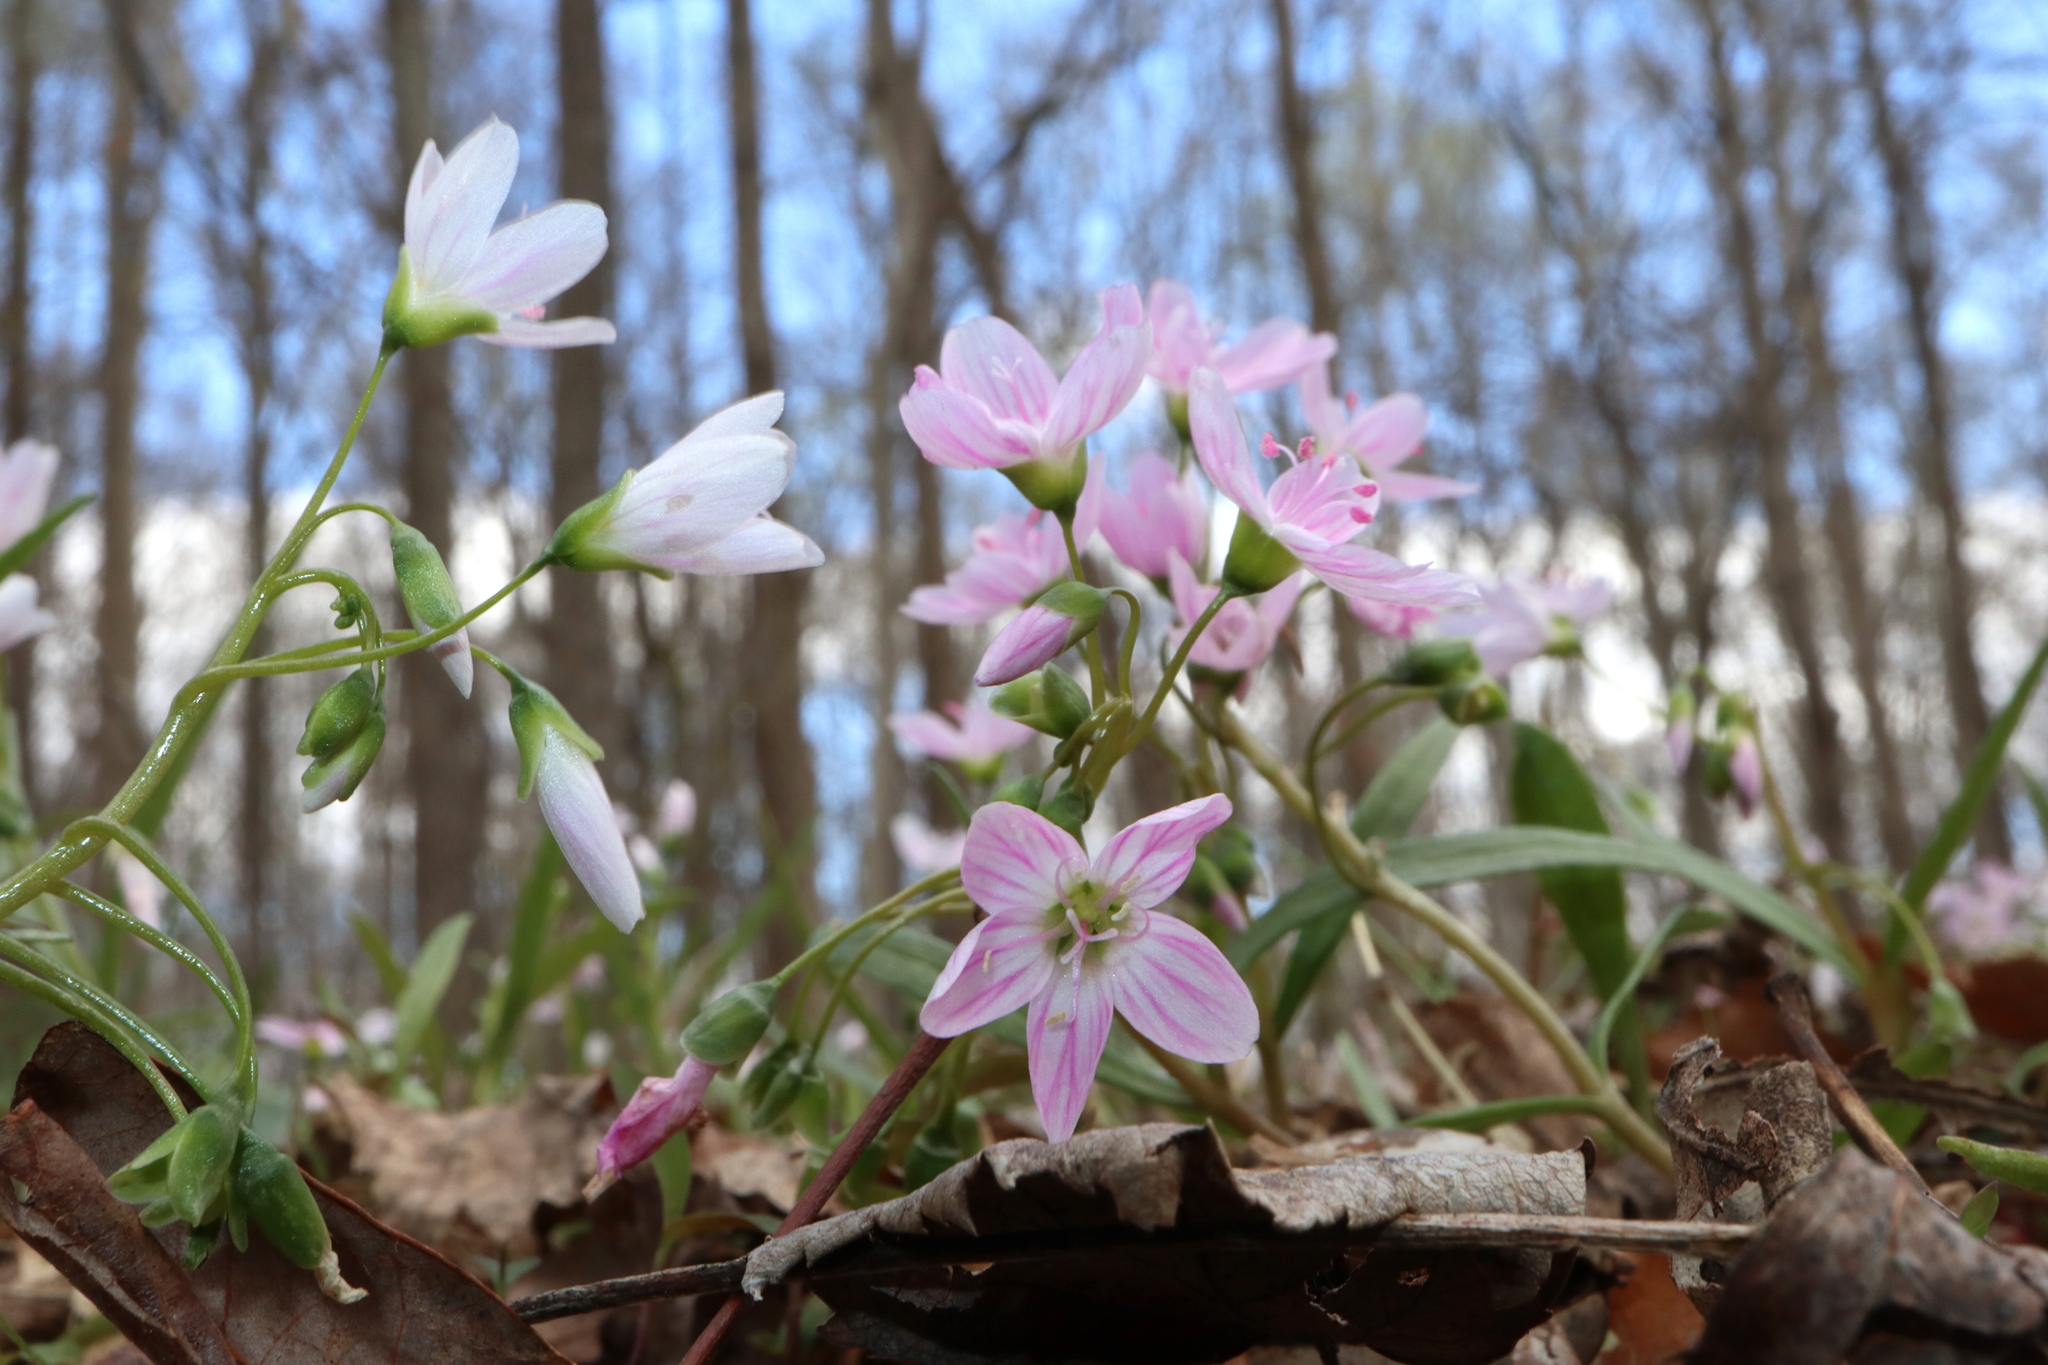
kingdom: Plantae
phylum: Tracheophyta
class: Magnoliopsida
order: Caryophyllales
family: Montiaceae
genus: Claytonia
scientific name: Claytonia virginica
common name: Virginia springbeauty
